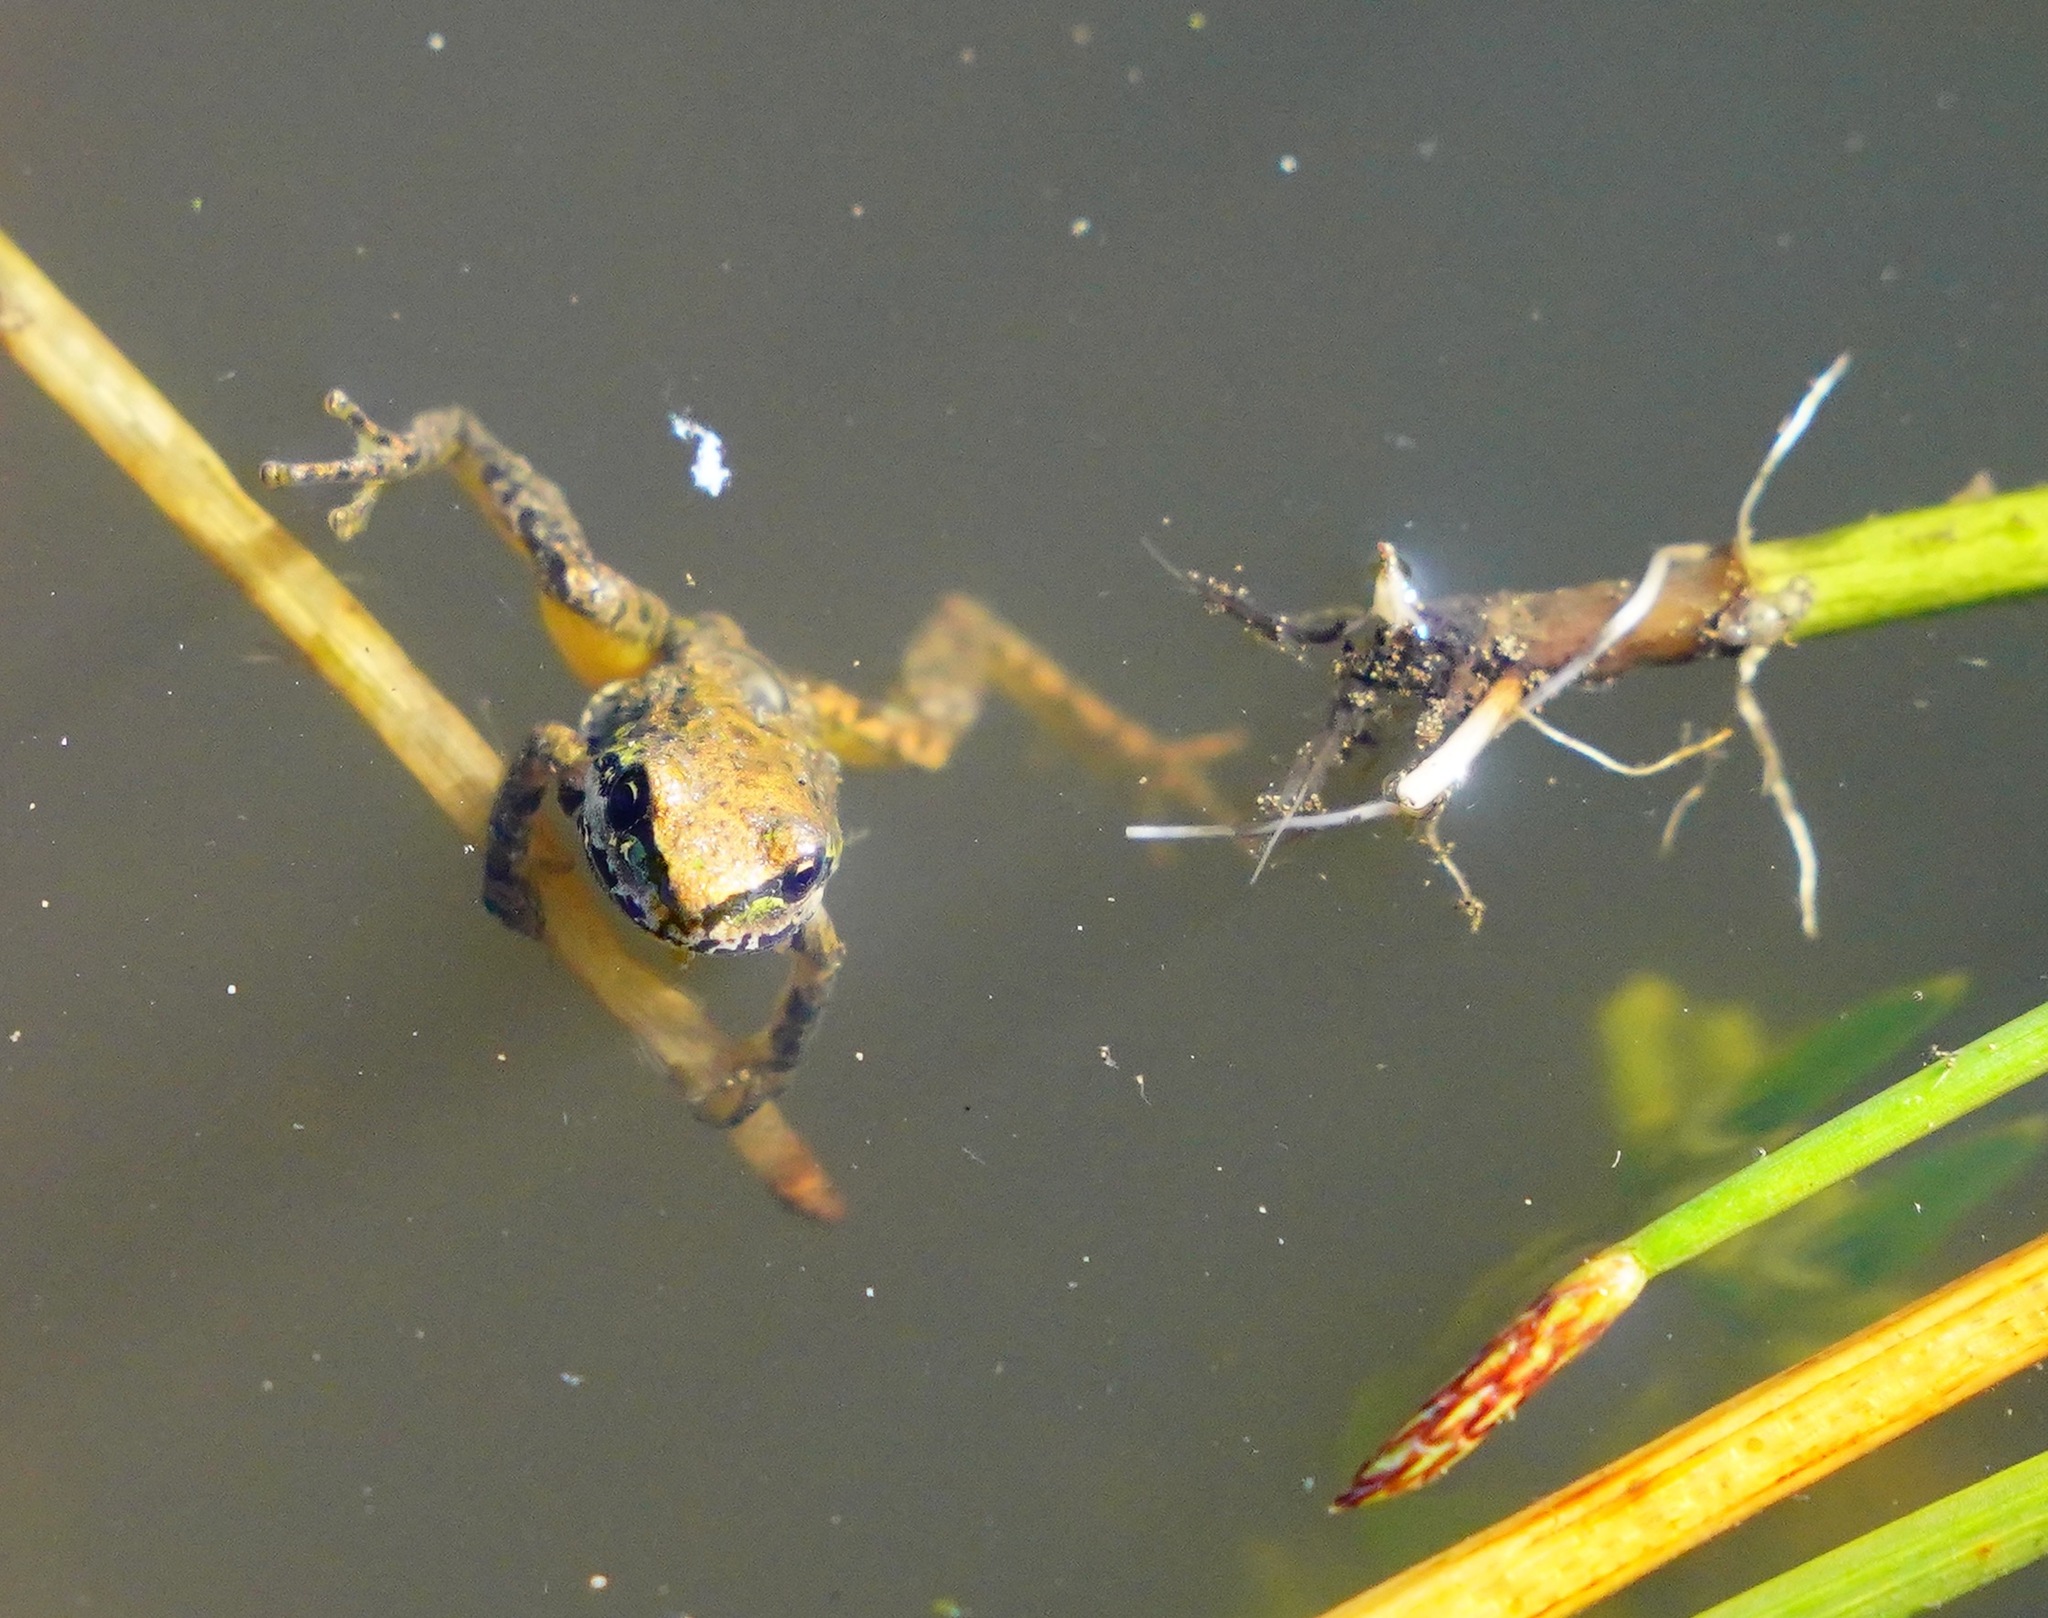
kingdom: Animalia
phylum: Chordata
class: Amphibia
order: Anura
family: Hylidae
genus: Pseudacris
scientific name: Pseudacris regilla
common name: Pacific chorus frog
